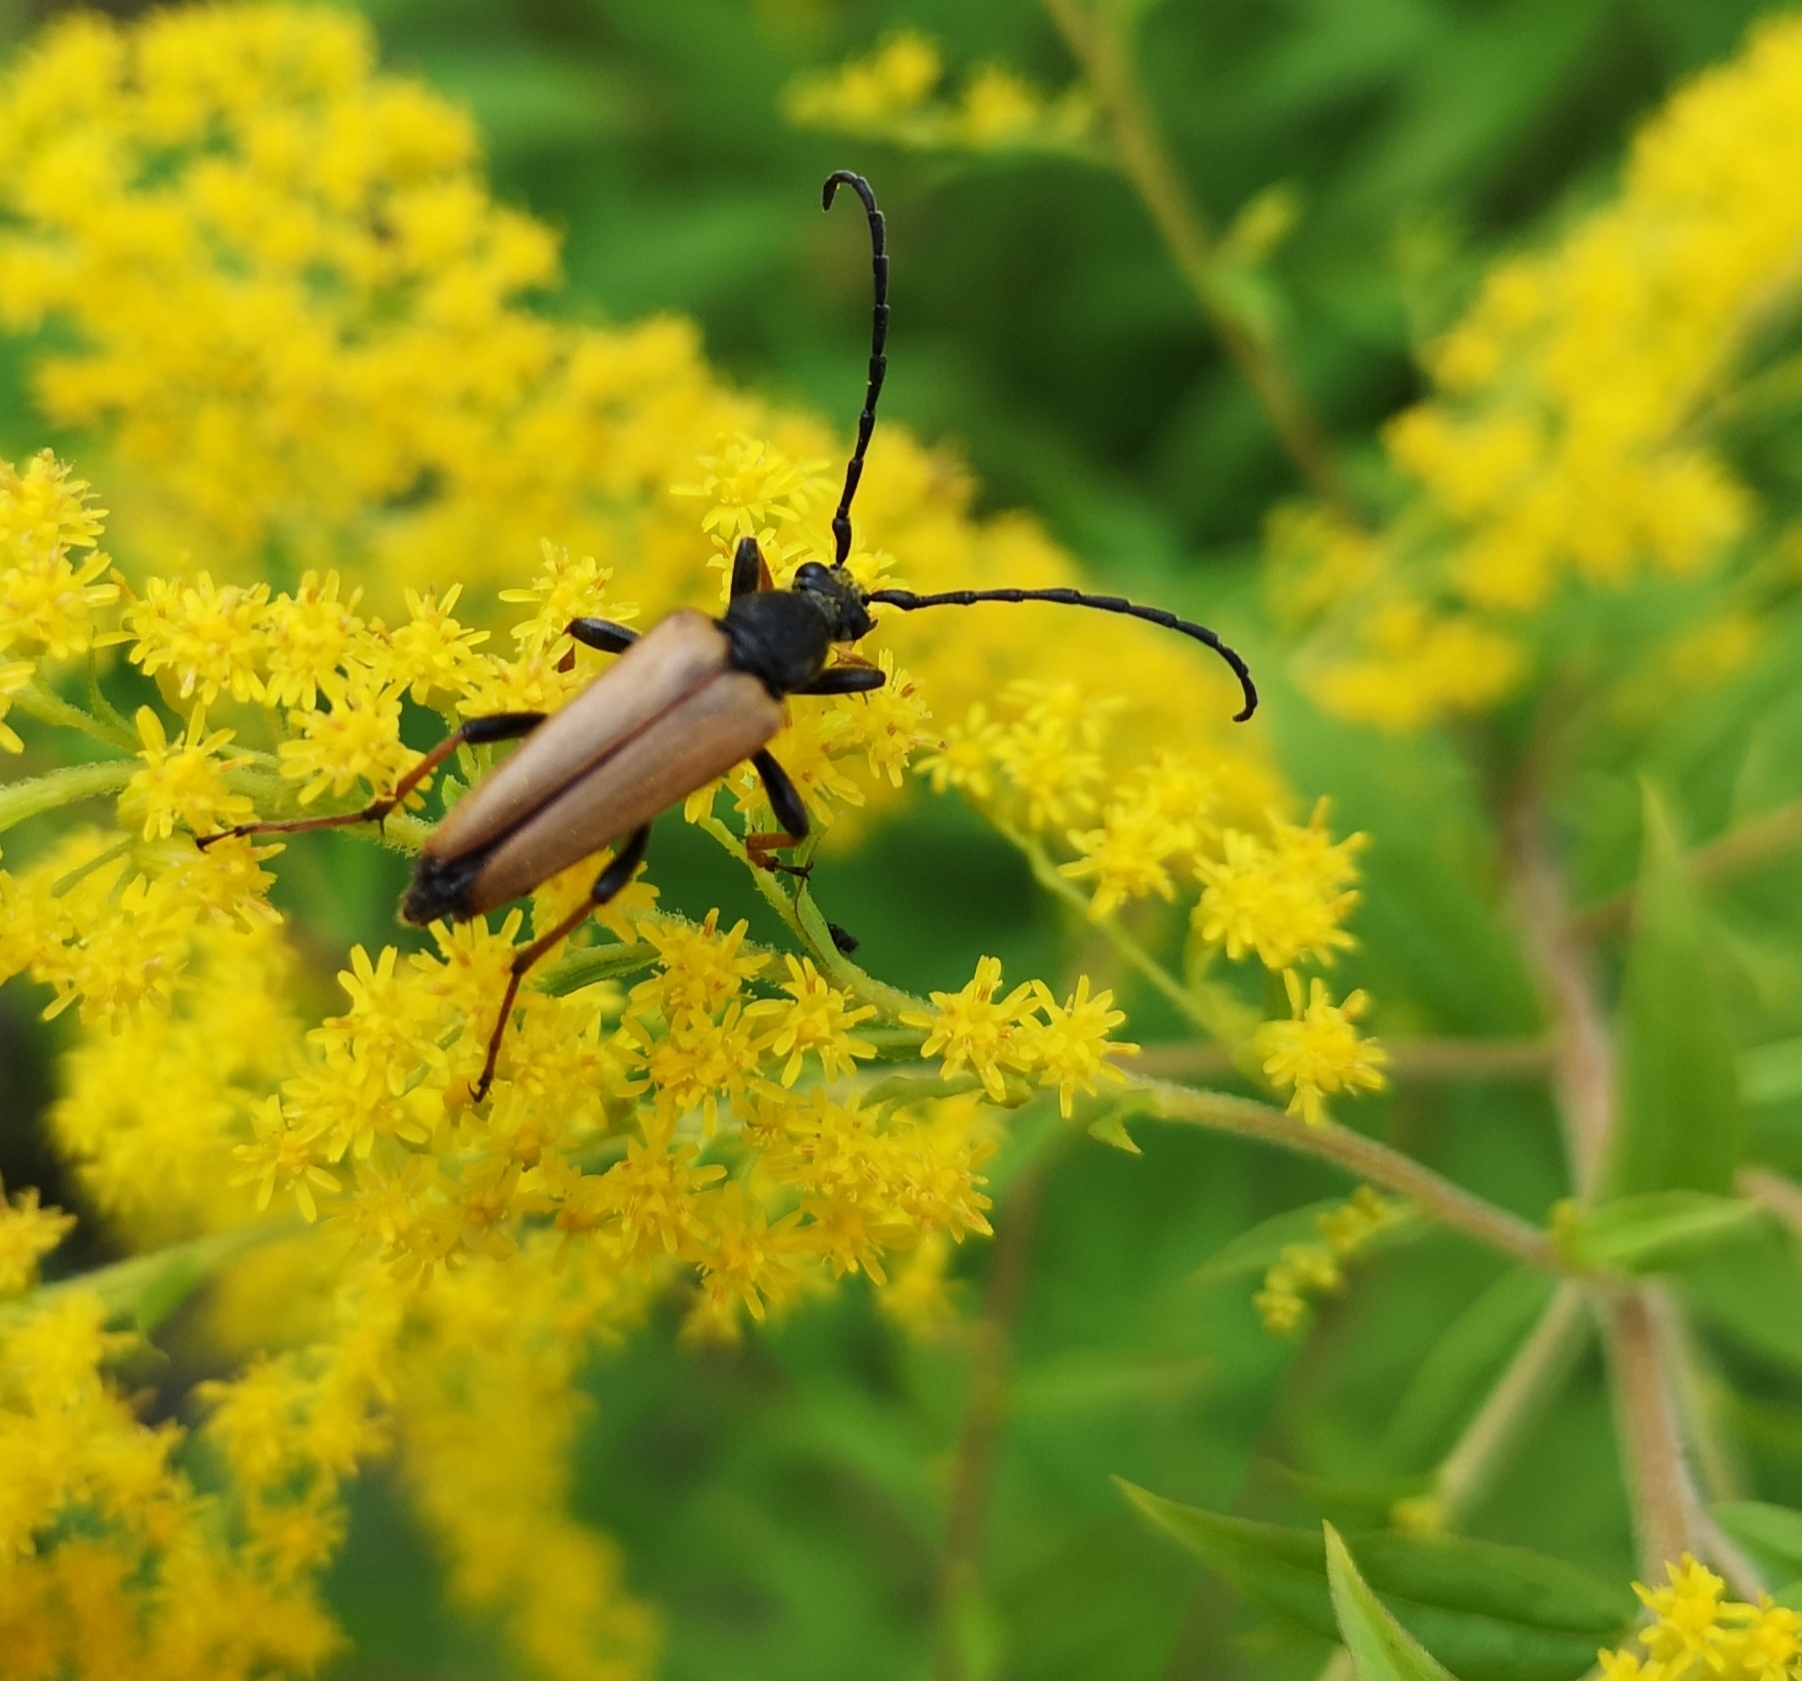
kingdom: Animalia
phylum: Arthropoda
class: Insecta
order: Coleoptera
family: Cerambycidae
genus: Stictoleptura
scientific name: Stictoleptura rubra
